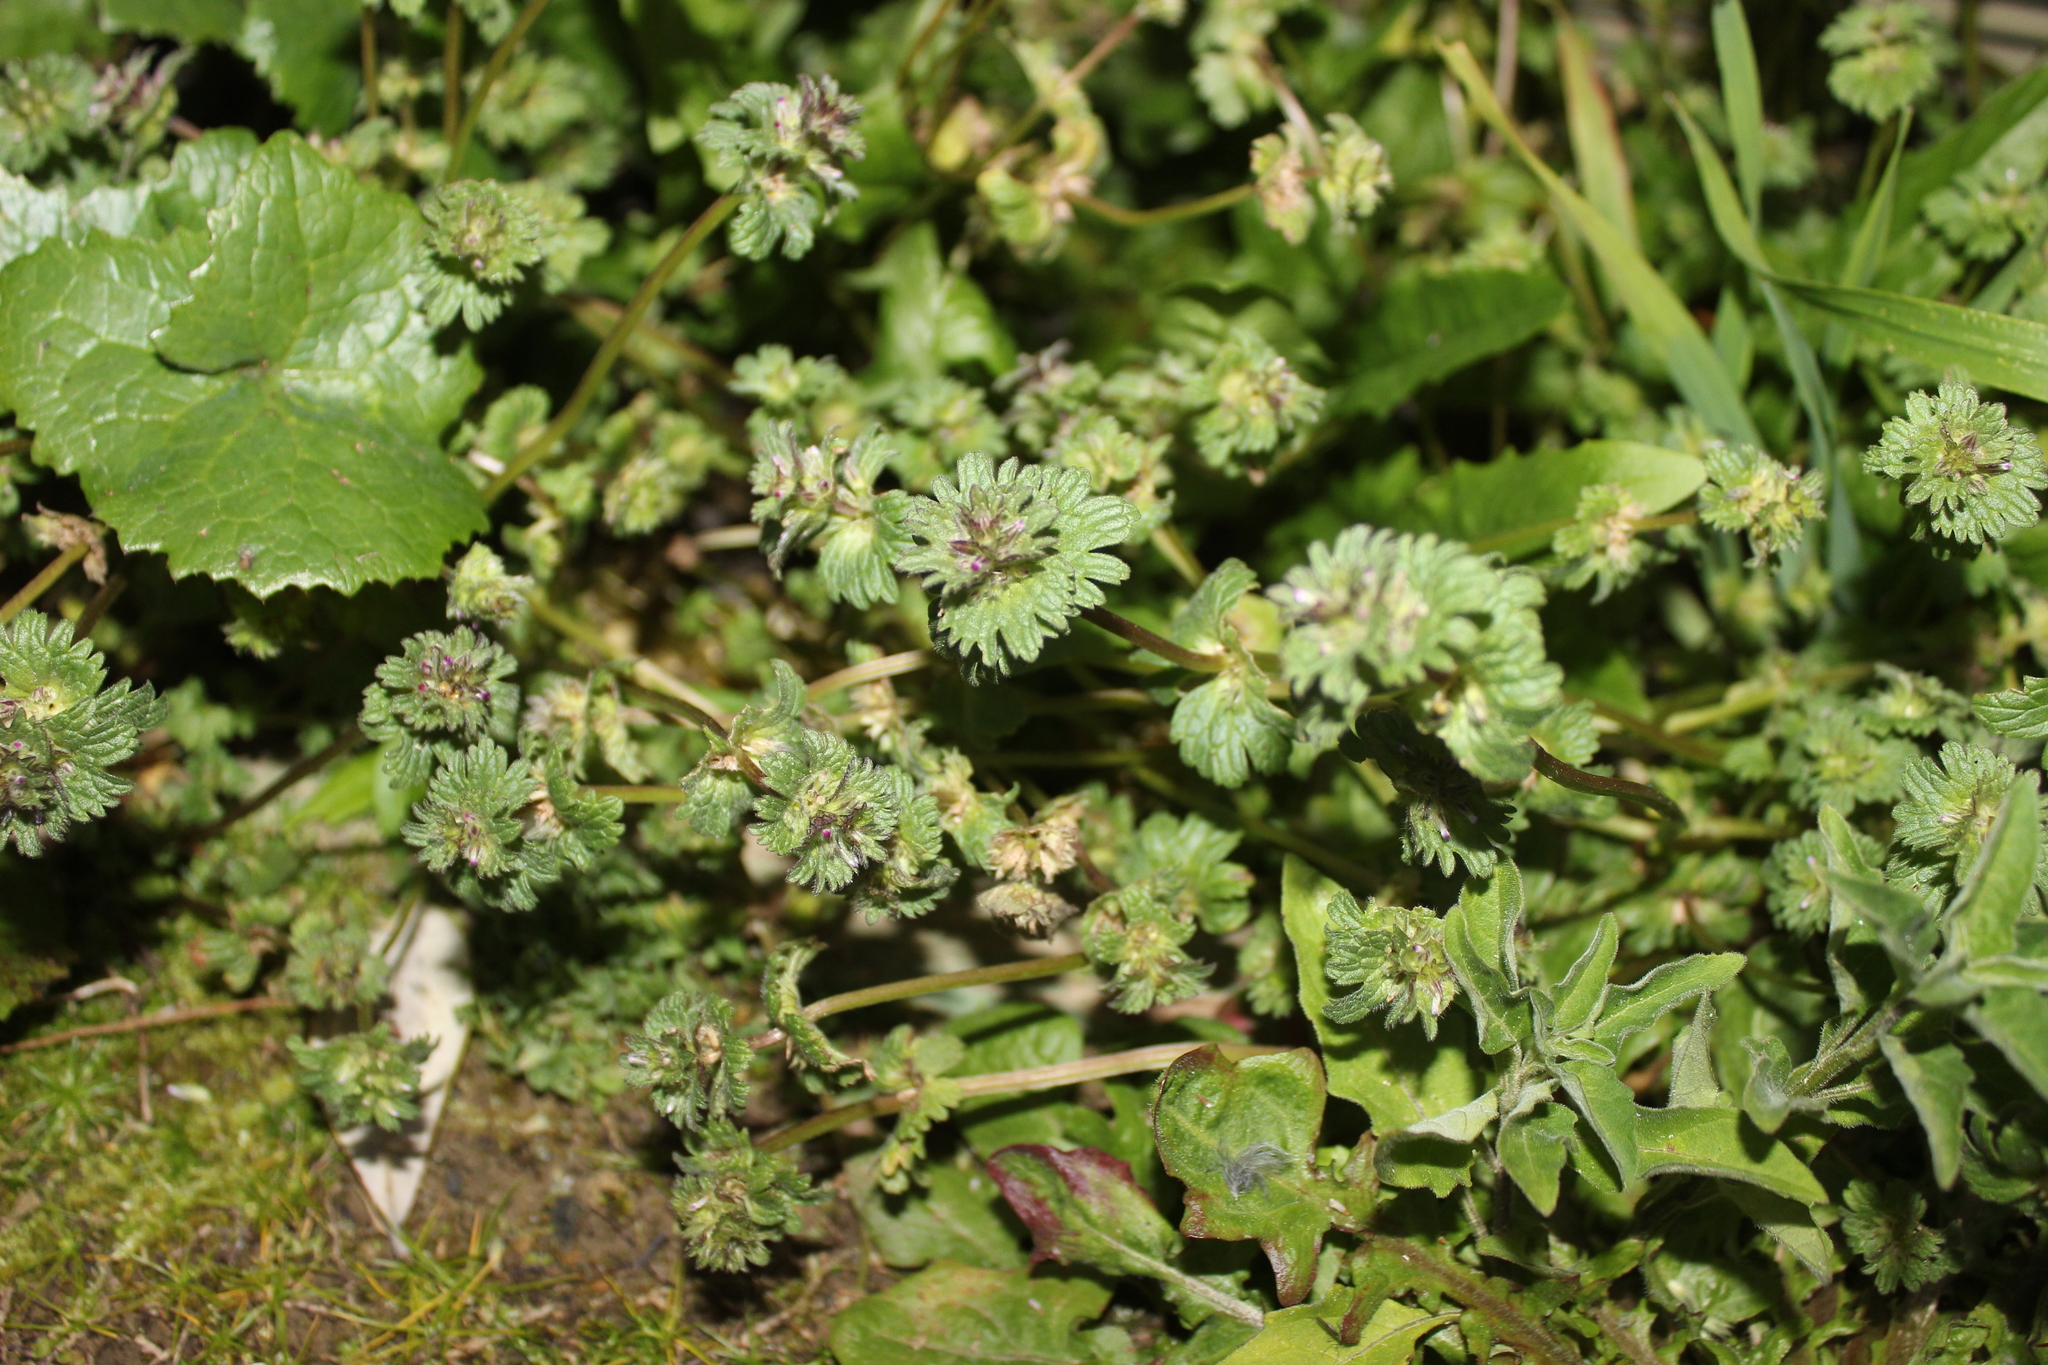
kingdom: Plantae
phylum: Tracheophyta
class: Magnoliopsida
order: Lamiales
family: Lamiaceae
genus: Lamium
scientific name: Lamium amplexicaule
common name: Henbit dead-nettle
